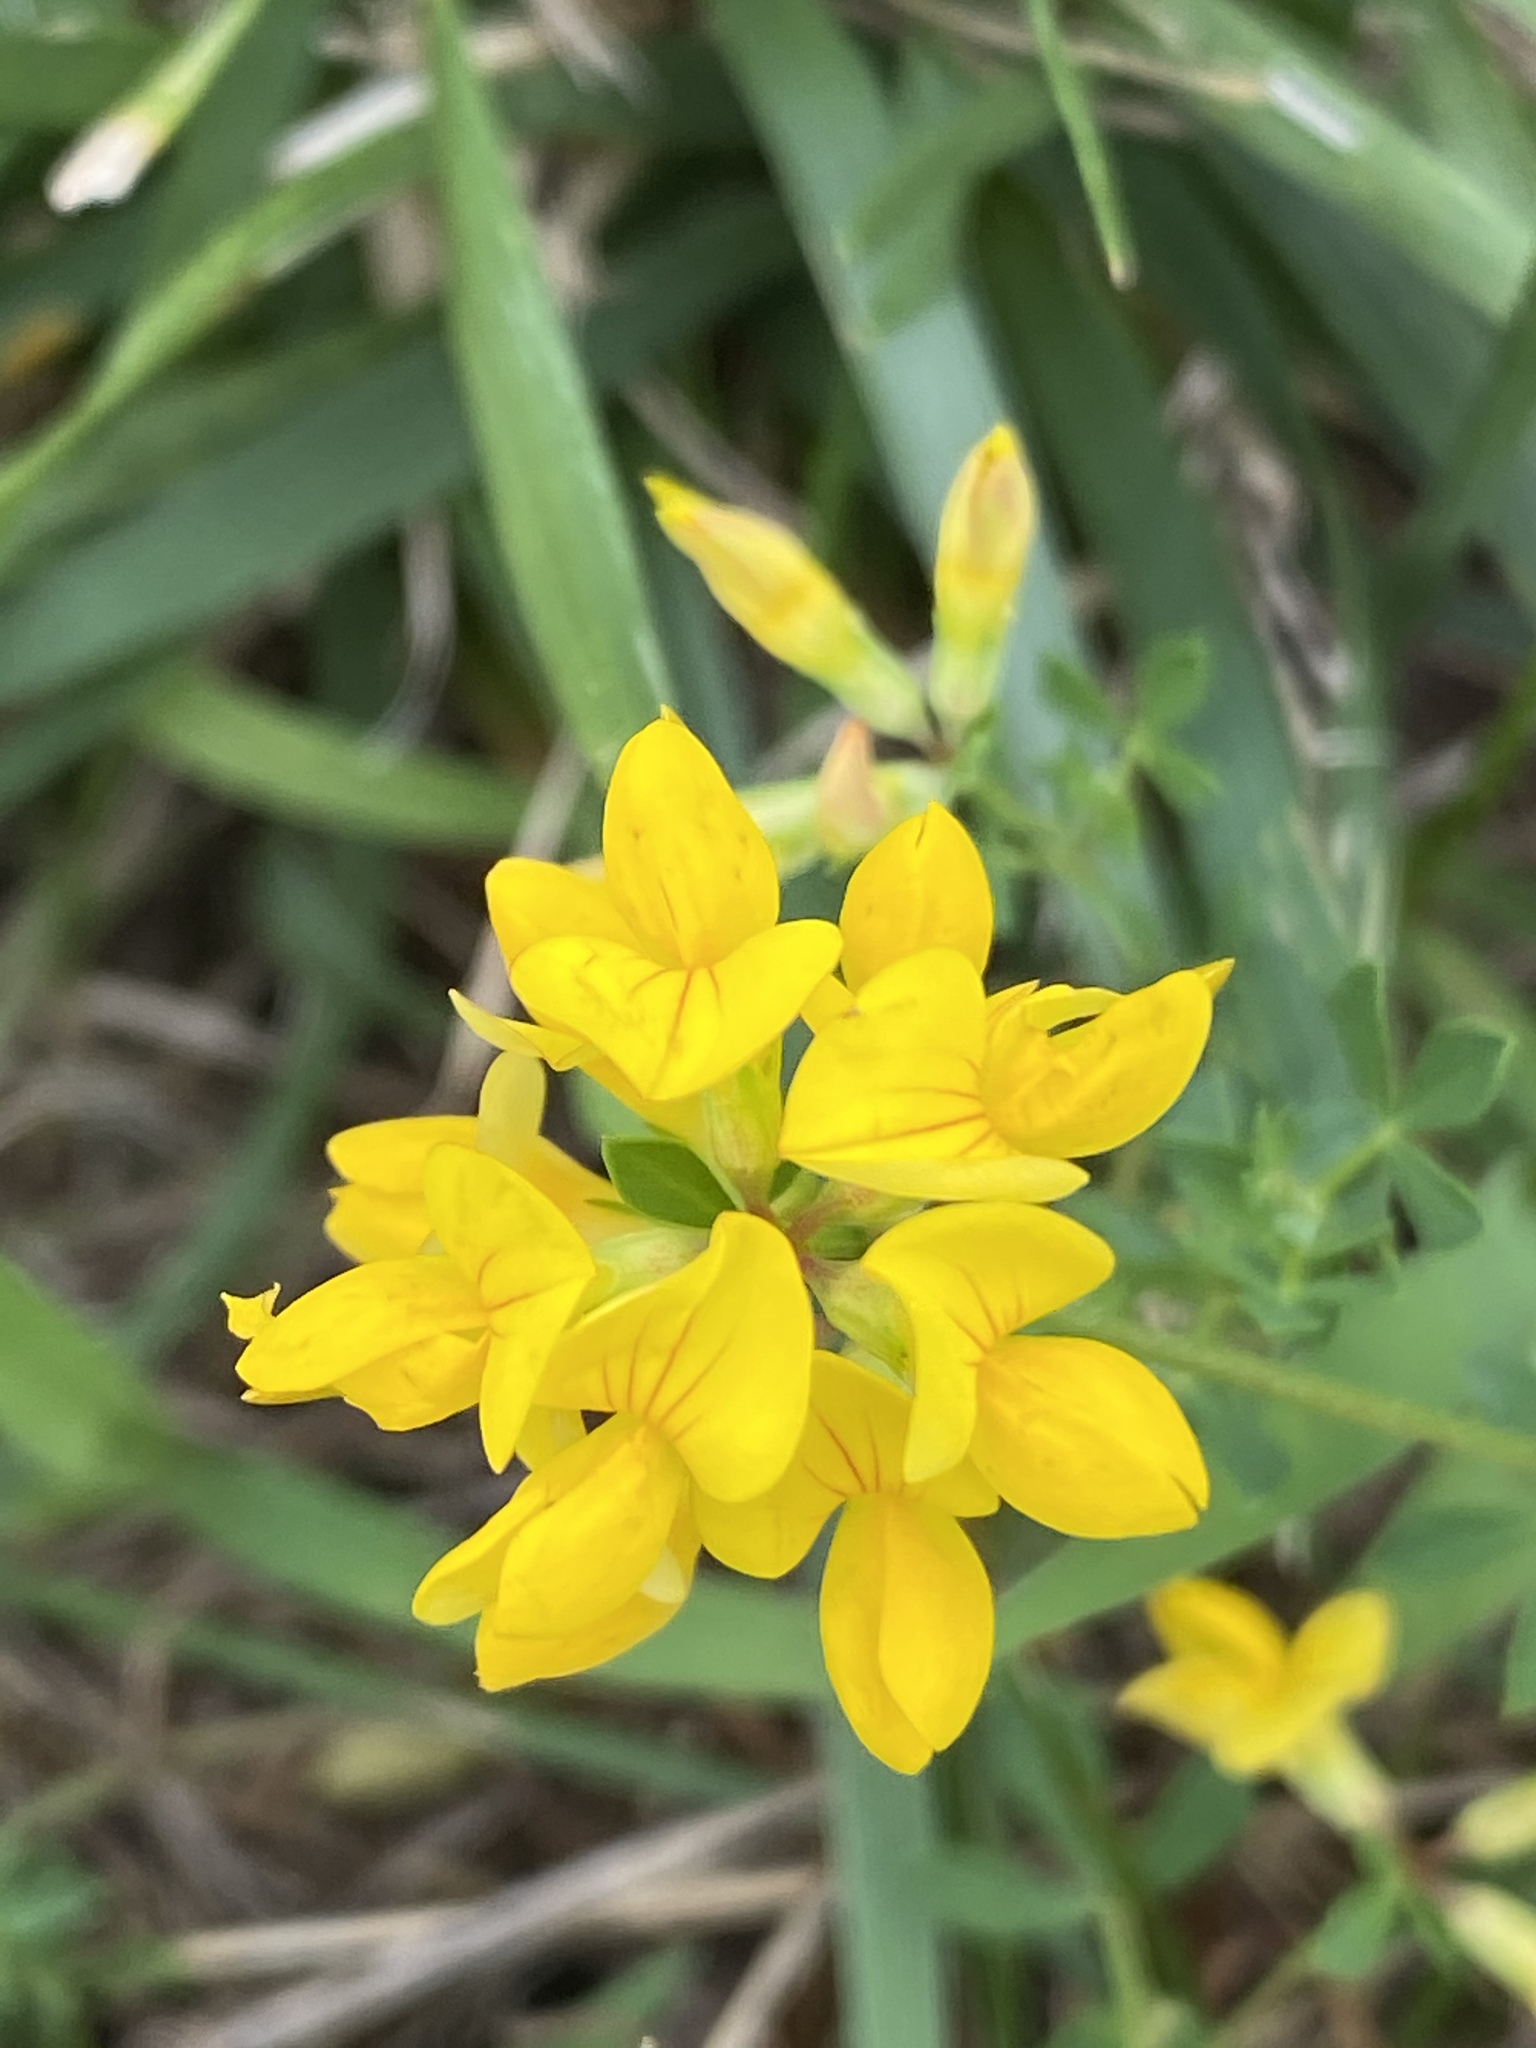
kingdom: Plantae
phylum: Tracheophyta
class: Magnoliopsida
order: Fabales
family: Fabaceae
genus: Lotus
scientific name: Lotus corniculatus
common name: Common bird's-foot-trefoil
